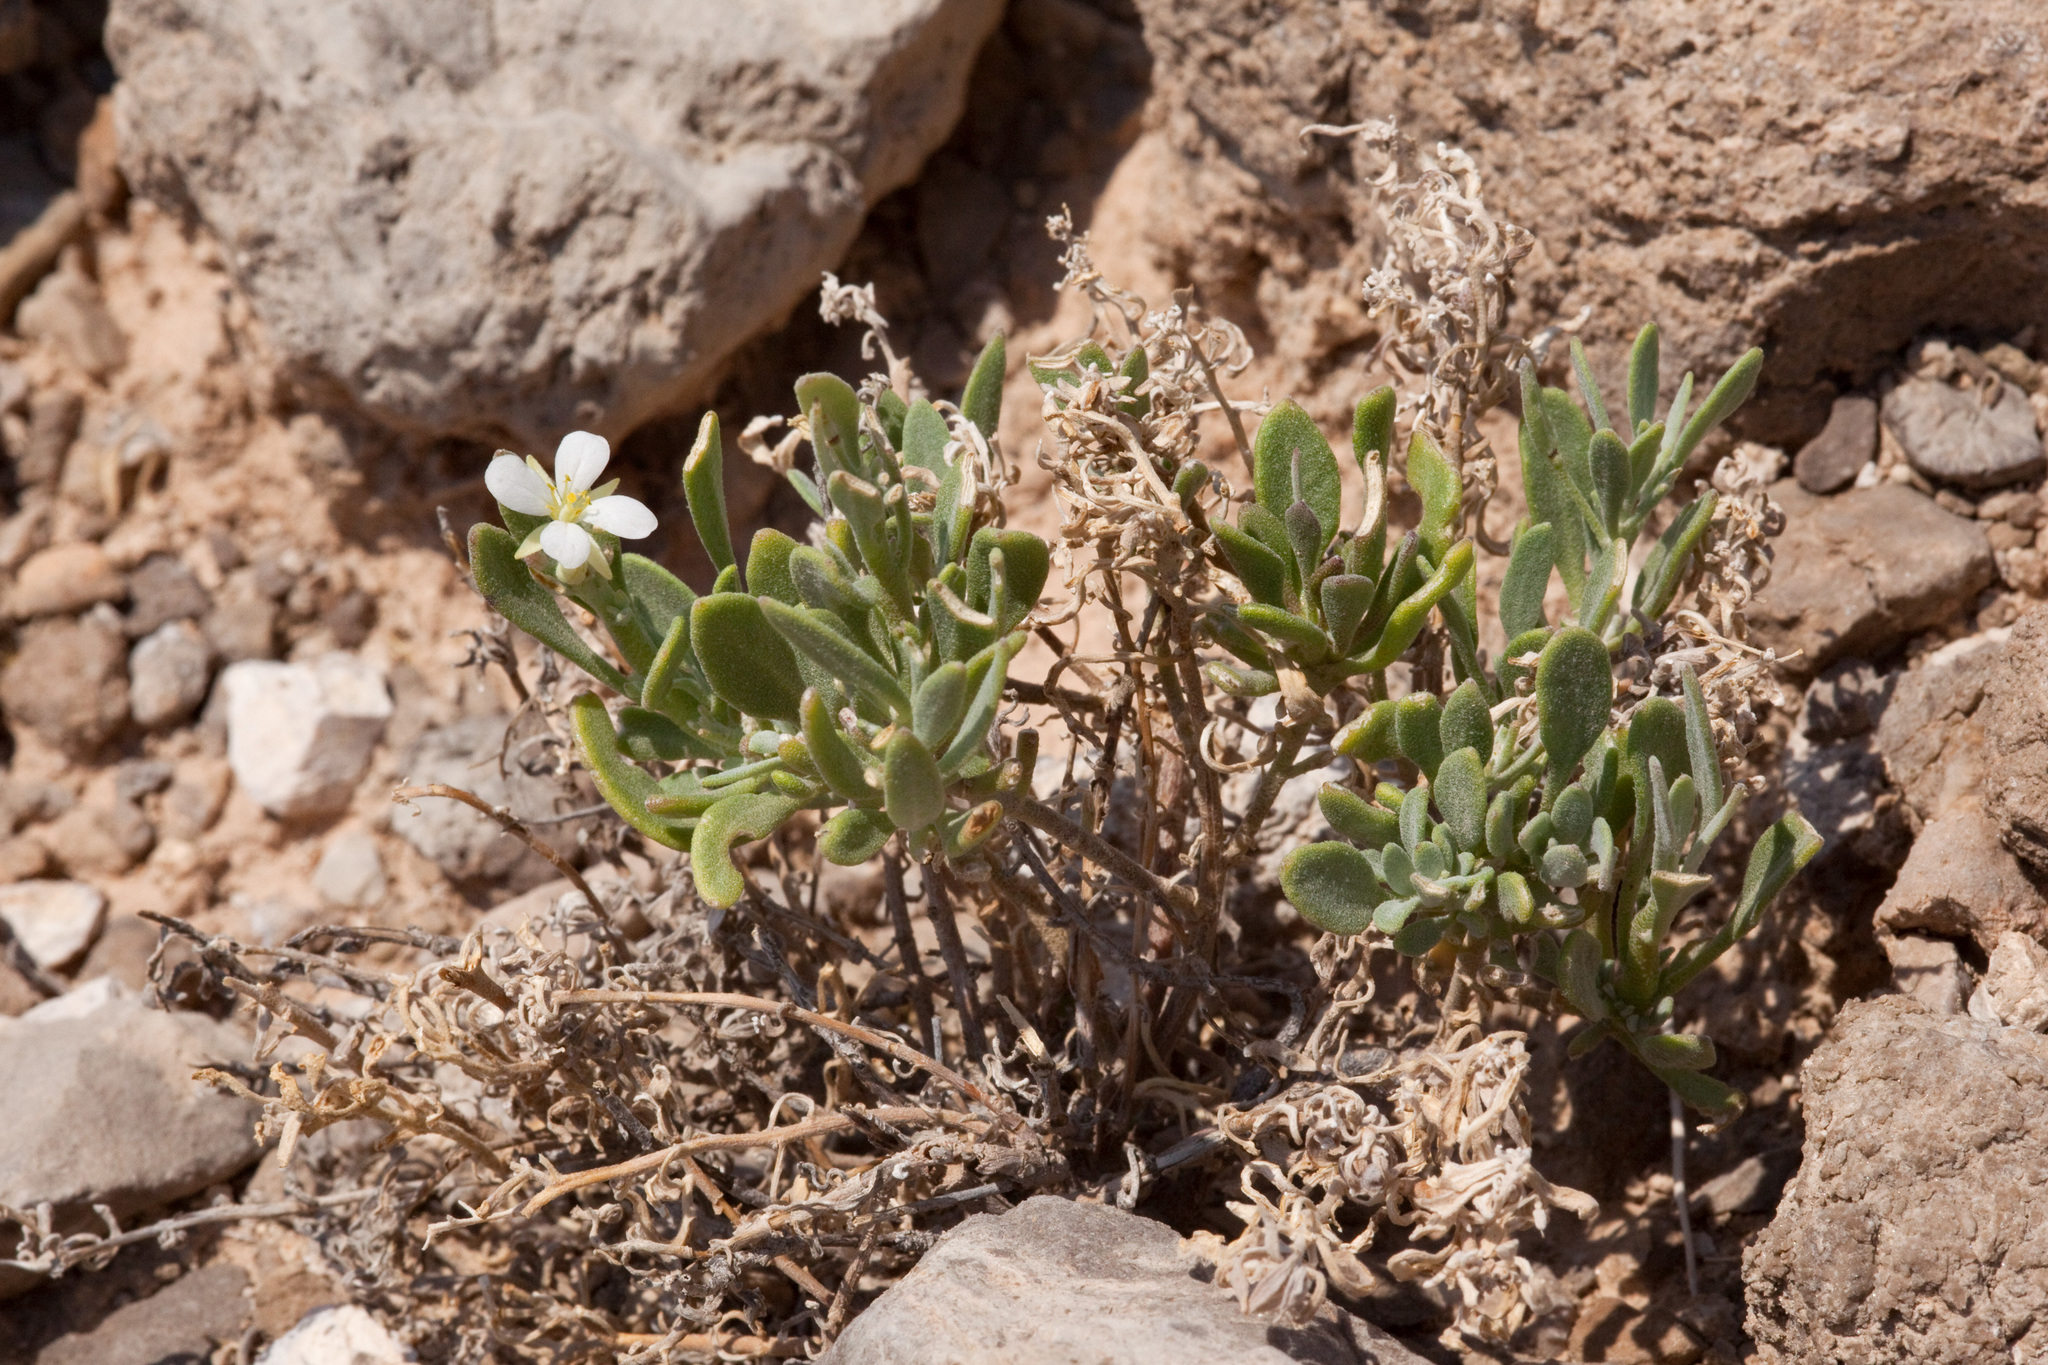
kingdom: Plantae
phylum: Tracheophyta
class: Magnoliopsida
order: Brassicales
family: Brassicaceae
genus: Nerisyrenia
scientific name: Nerisyrenia hypercorax
